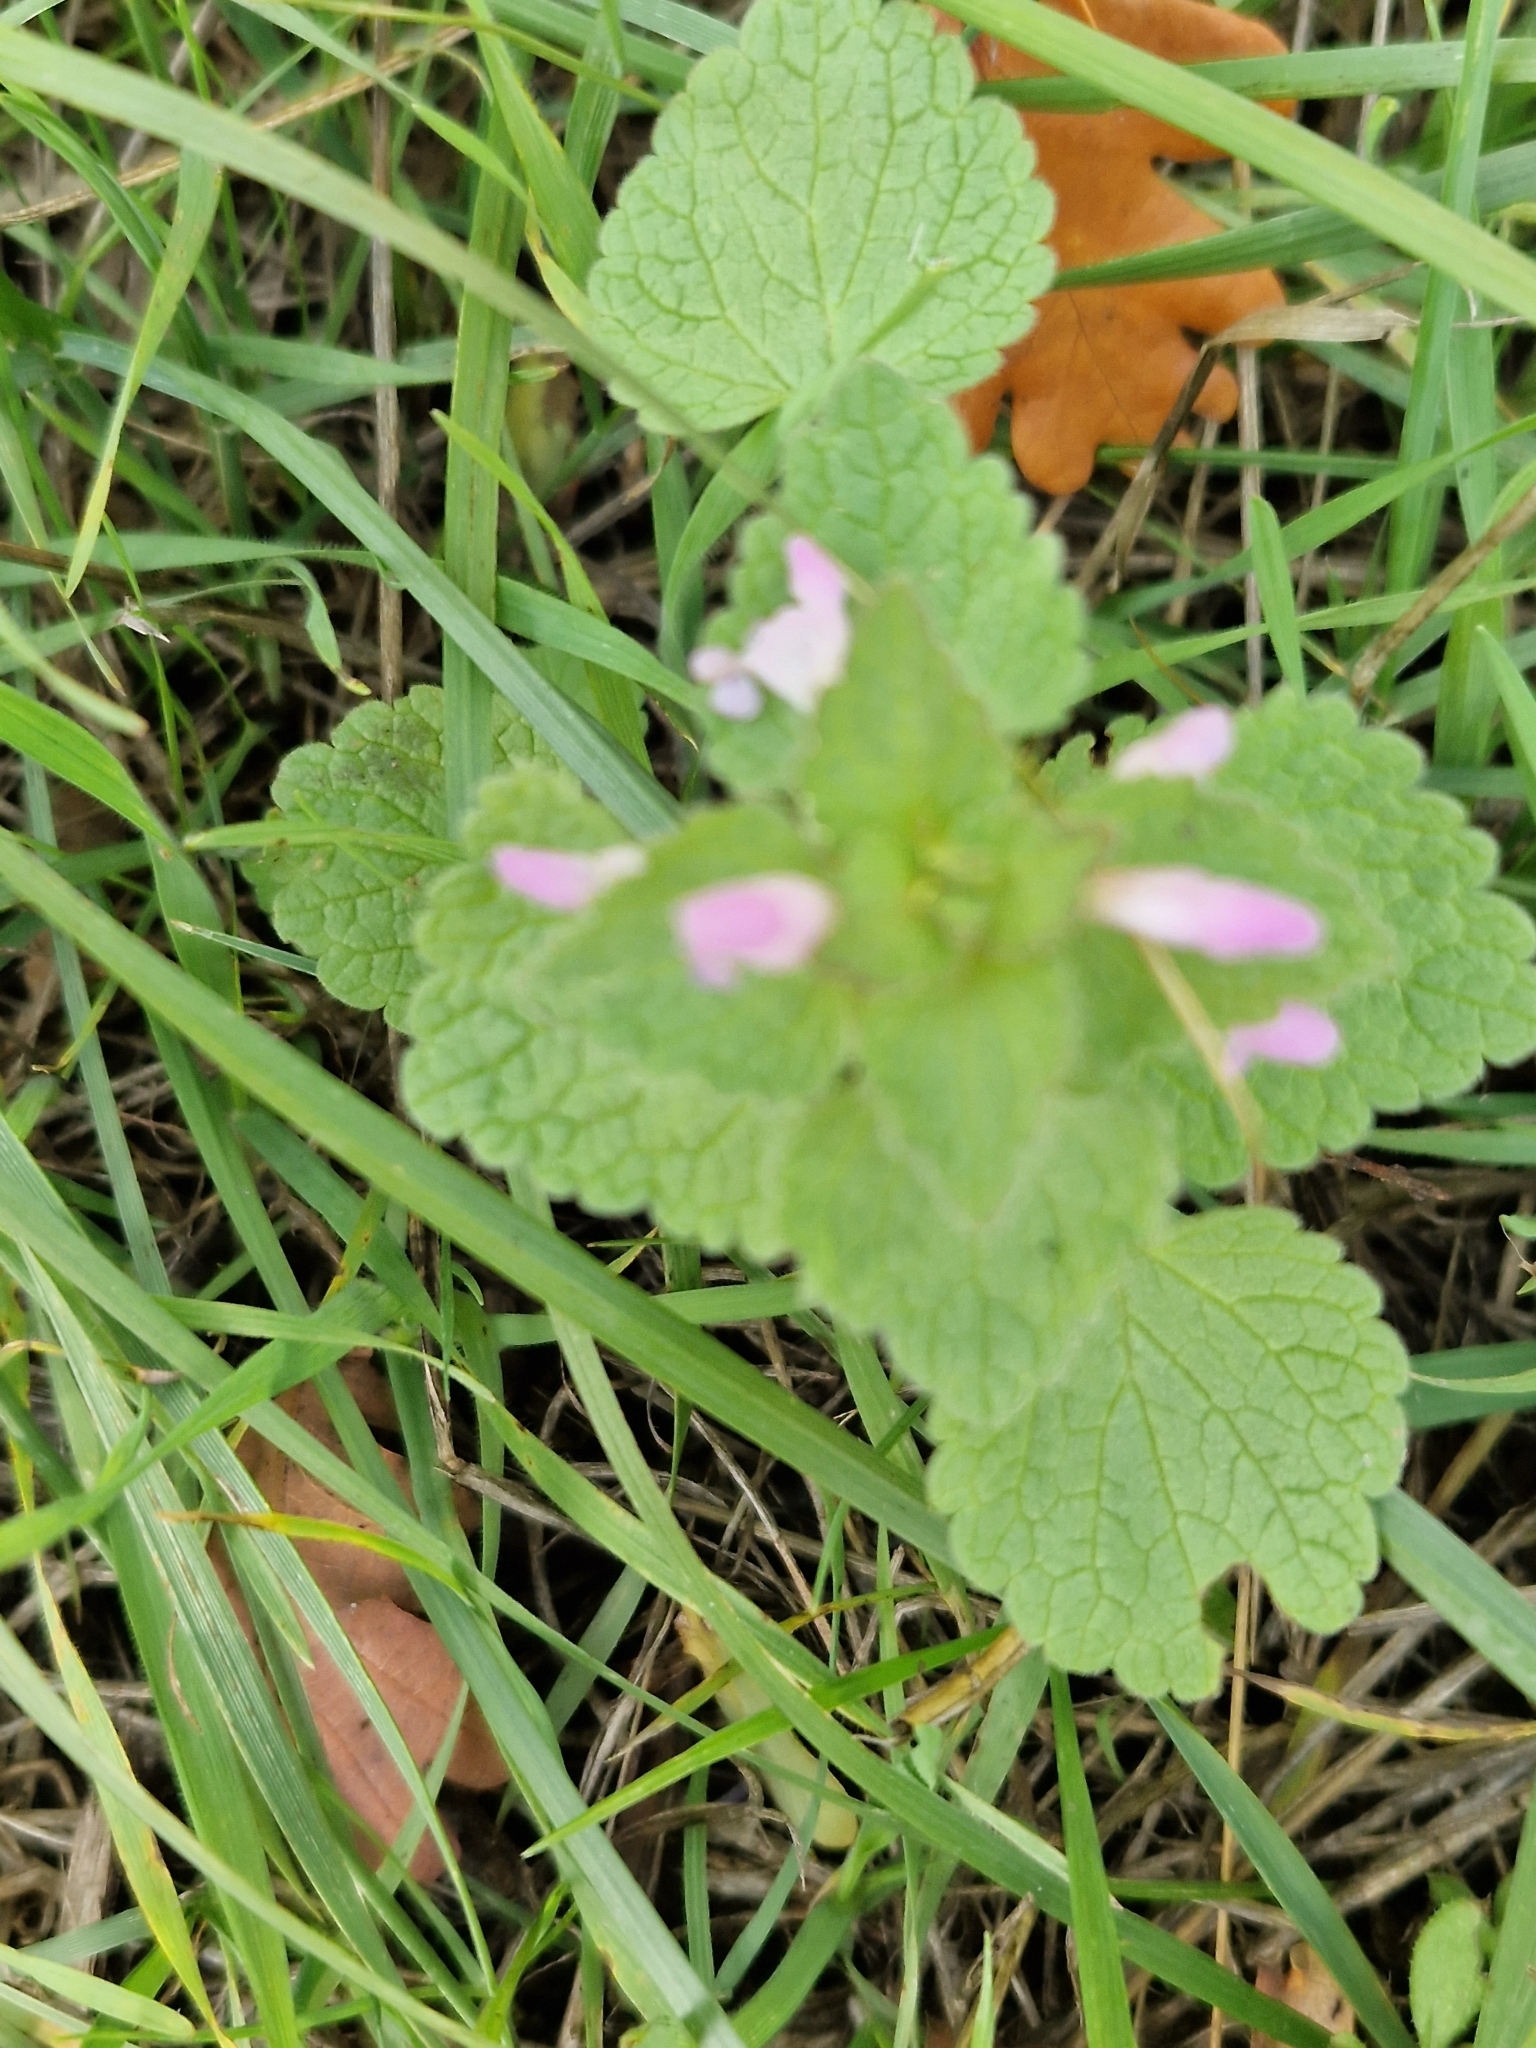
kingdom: Plantae
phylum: Tracheophyta
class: Magnoliopsida
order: Lamiales
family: Lamiaceae
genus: Lamium
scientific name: Lamium purpureum
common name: Red dead-nettle
